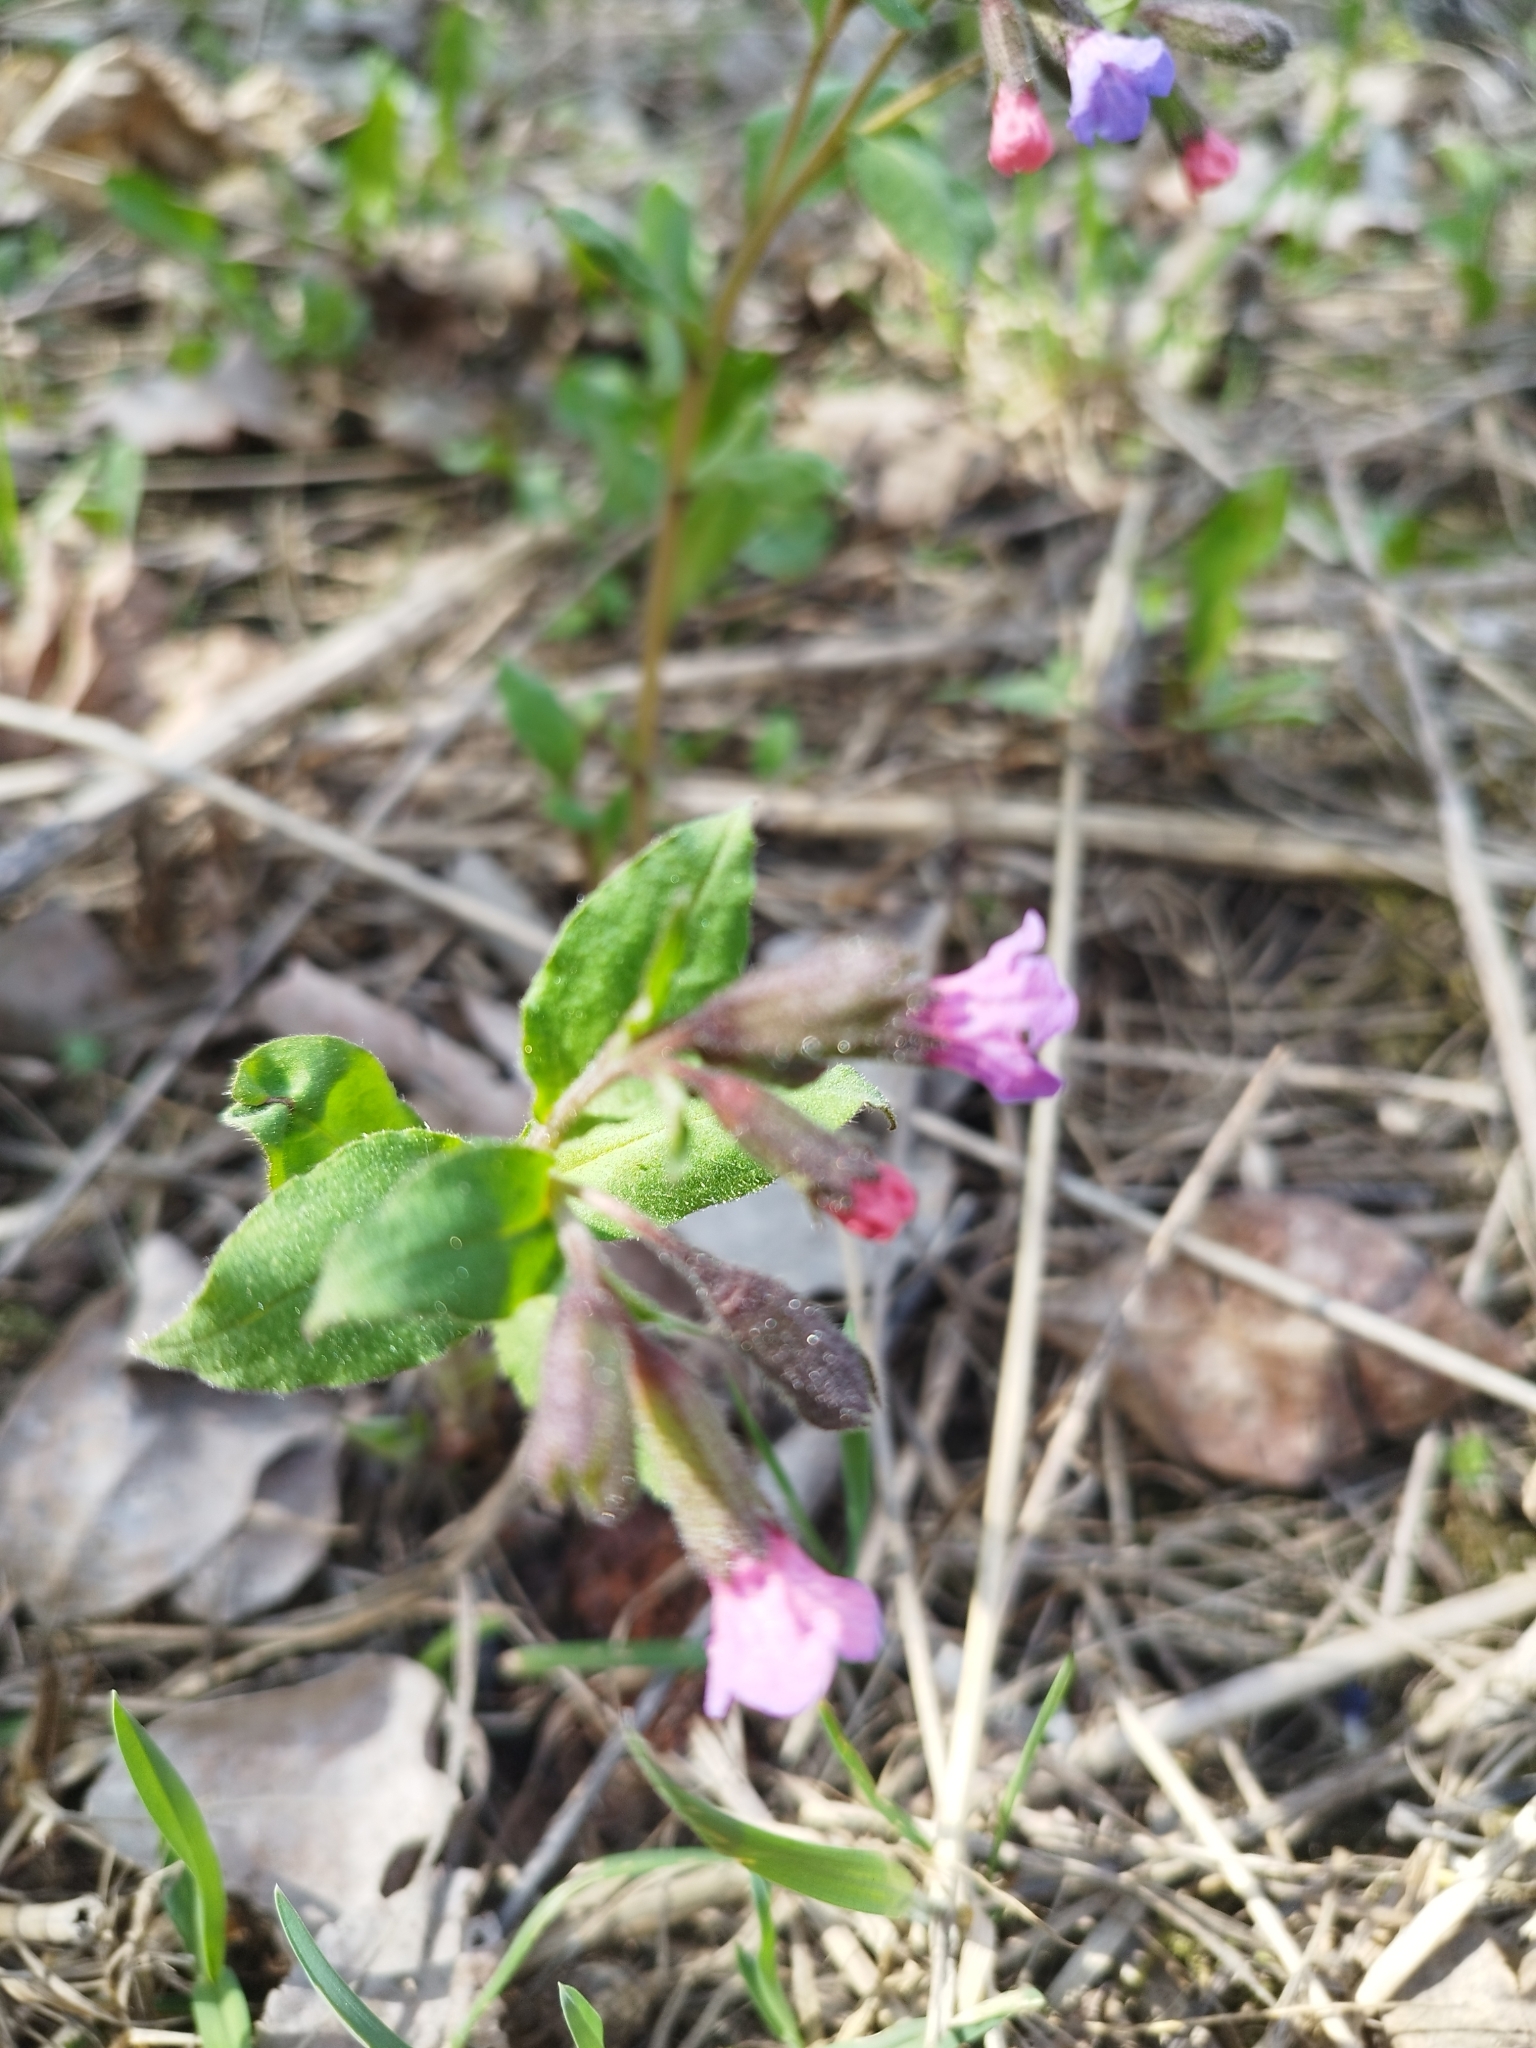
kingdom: Plantae
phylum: Tracheophyta
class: Magnoliopsida
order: Boraginales
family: Boraginaceae
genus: Pulmonaria
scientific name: Pulmonaria obscura
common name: Suffolk lungwort
